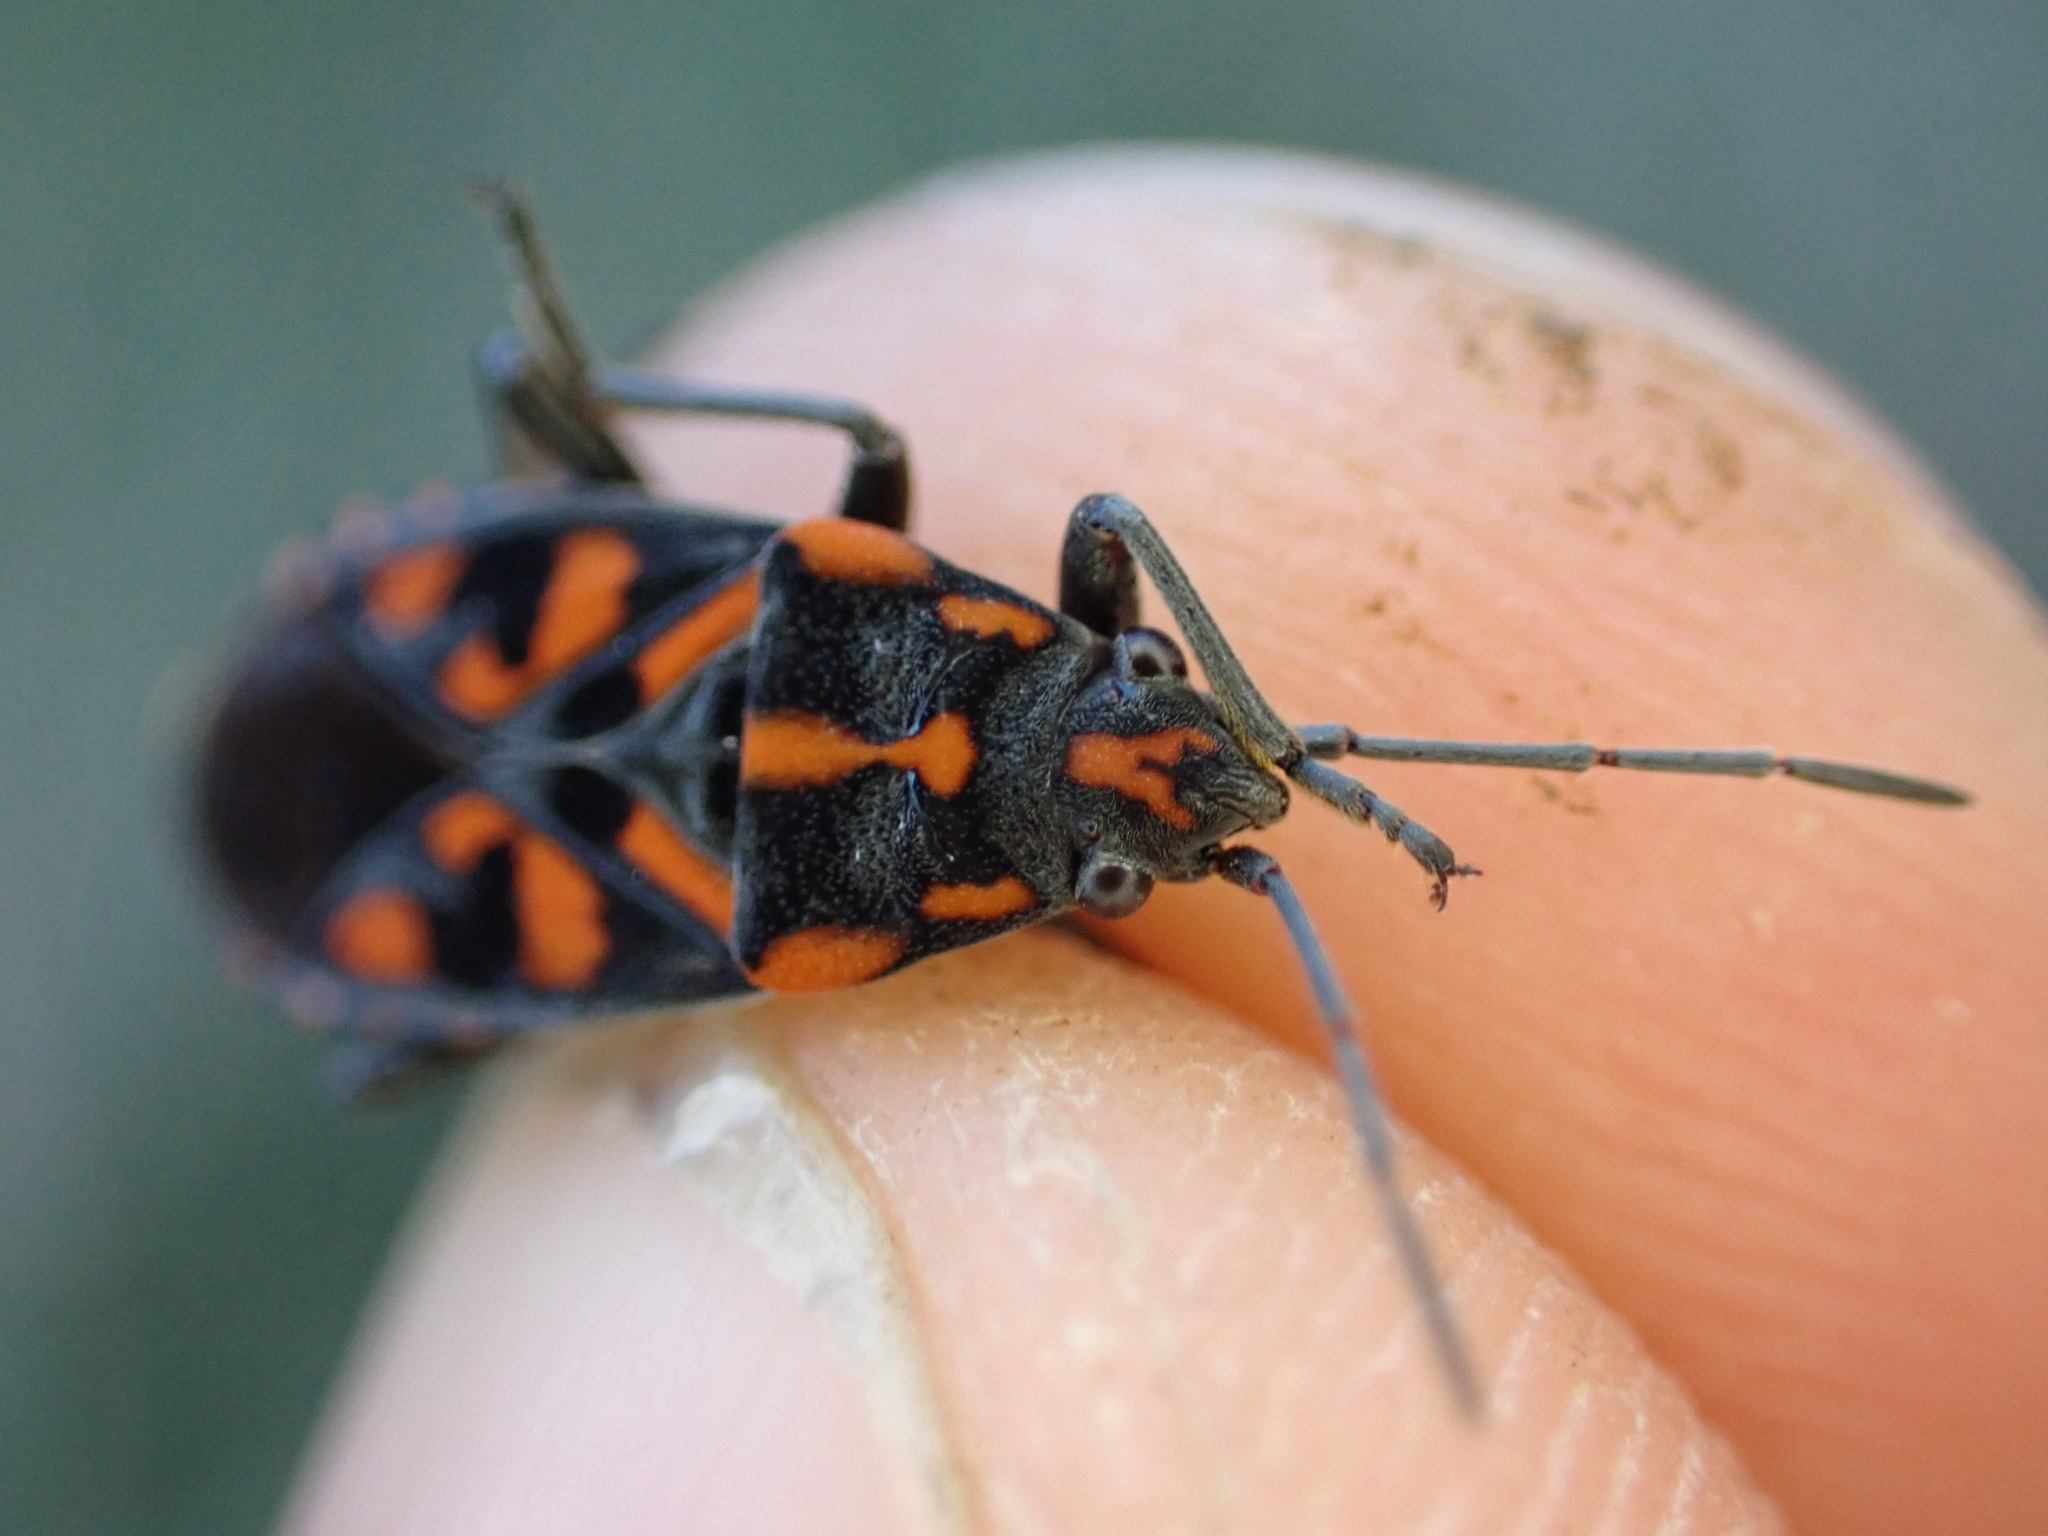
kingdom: Animalia
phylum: Arthropoda
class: Insecta
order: Hemiptera
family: Lygaeidae
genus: Spilostethus
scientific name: Spilostethus saxatilis
